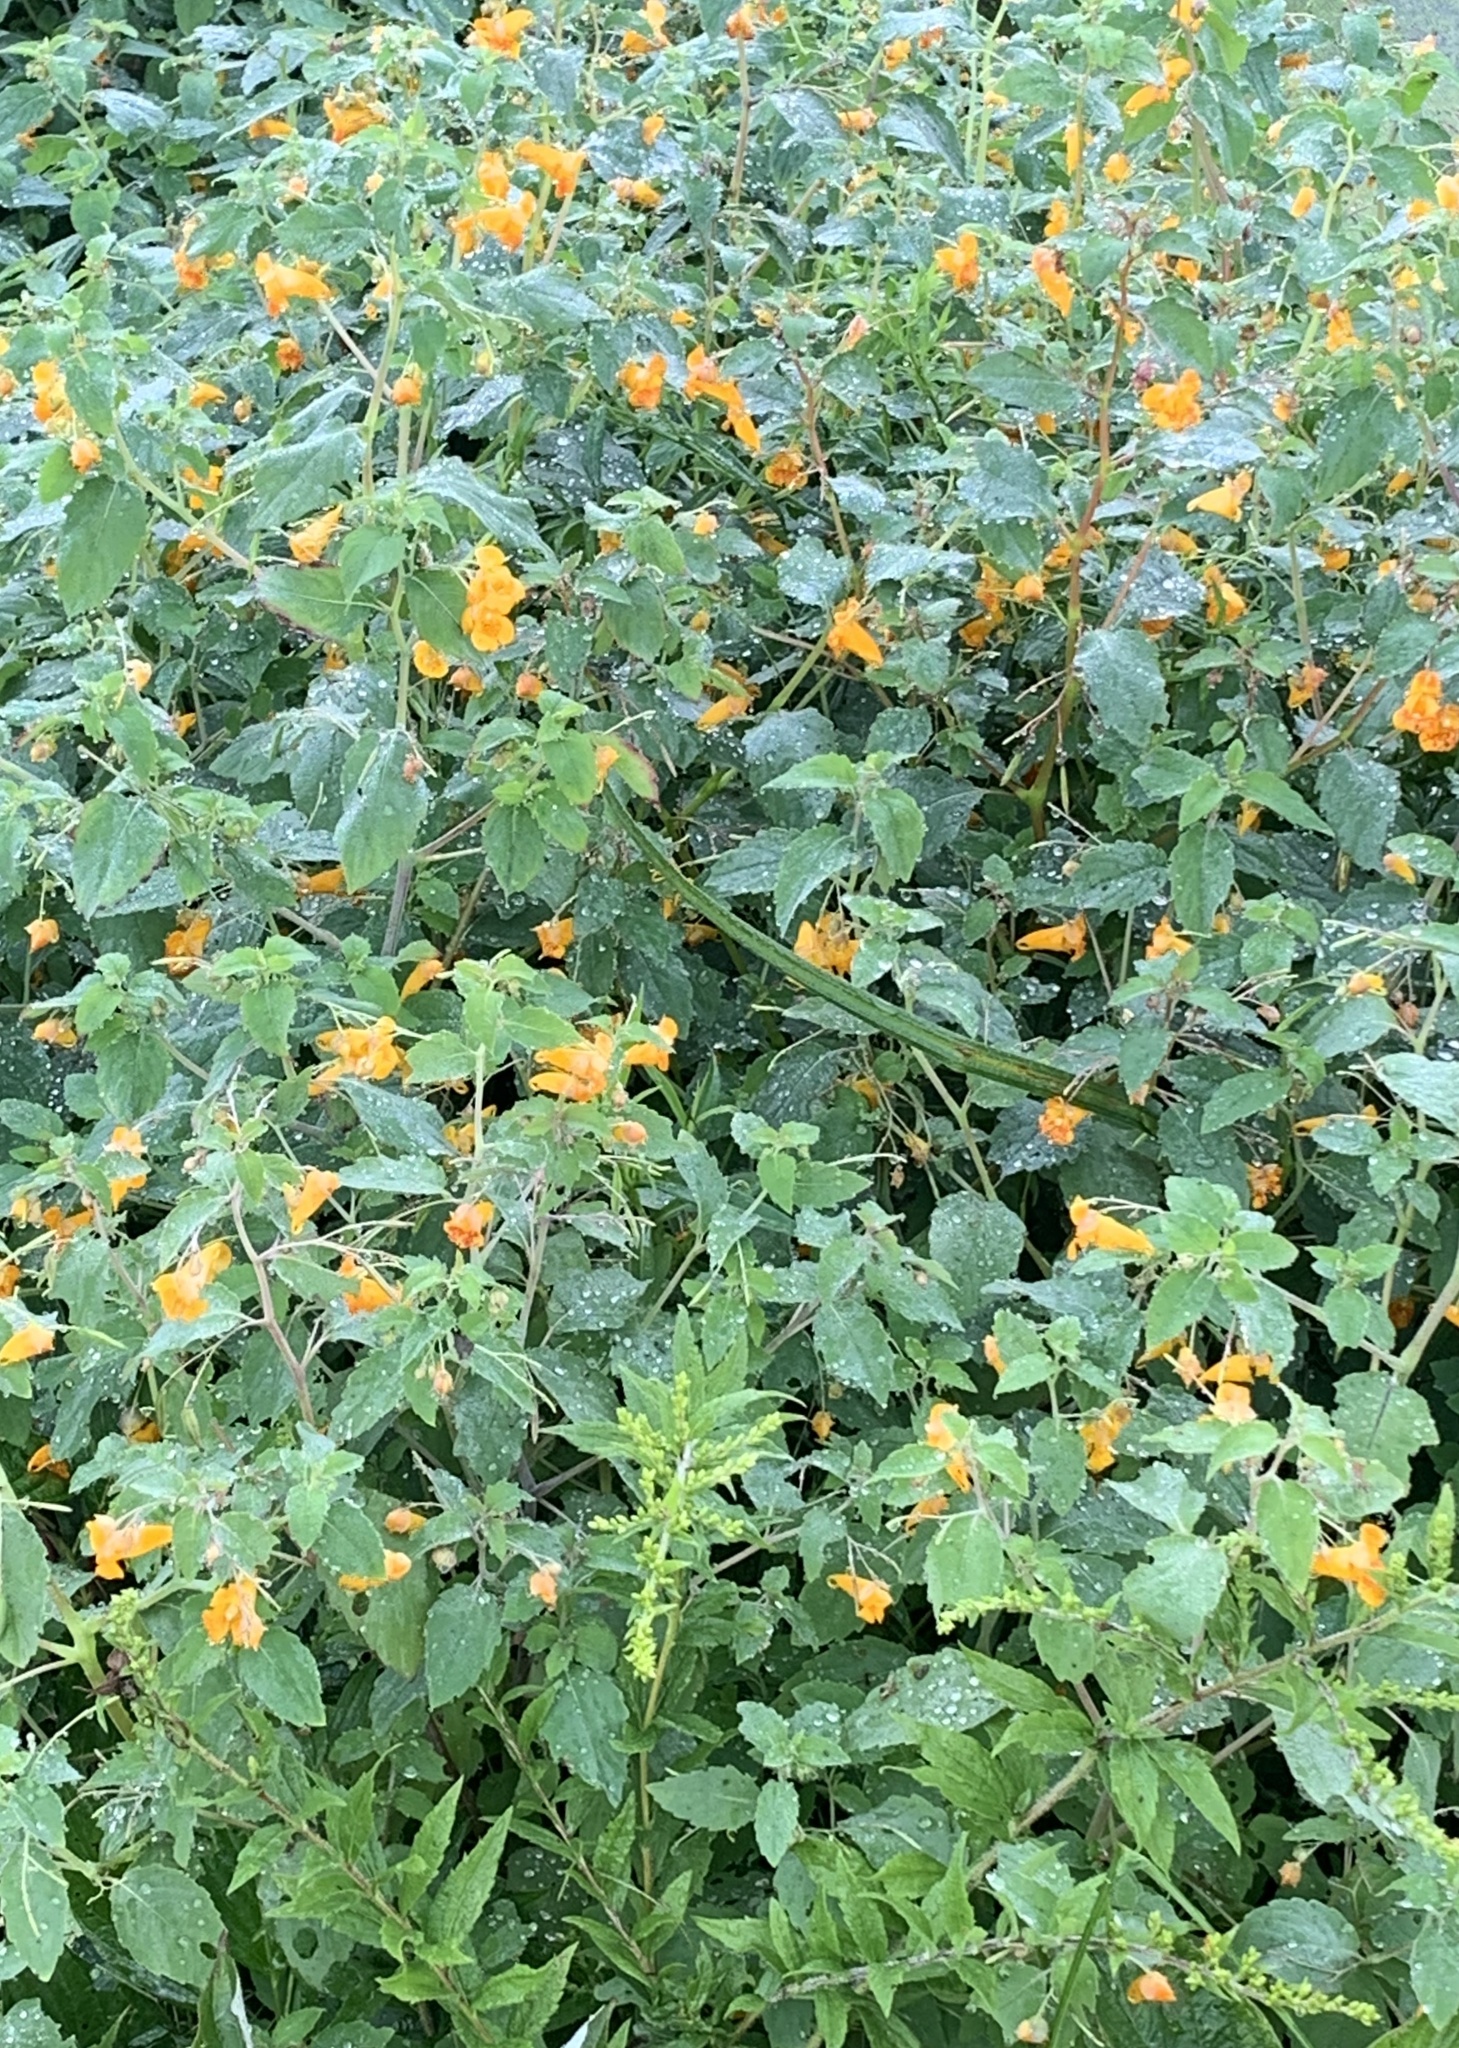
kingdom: Plantae
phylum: Tracheophyta
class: Magnoliopsida
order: Ericales
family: Balsaminaceae
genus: Impatiens
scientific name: Impatiens capensis
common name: Orange balsam
